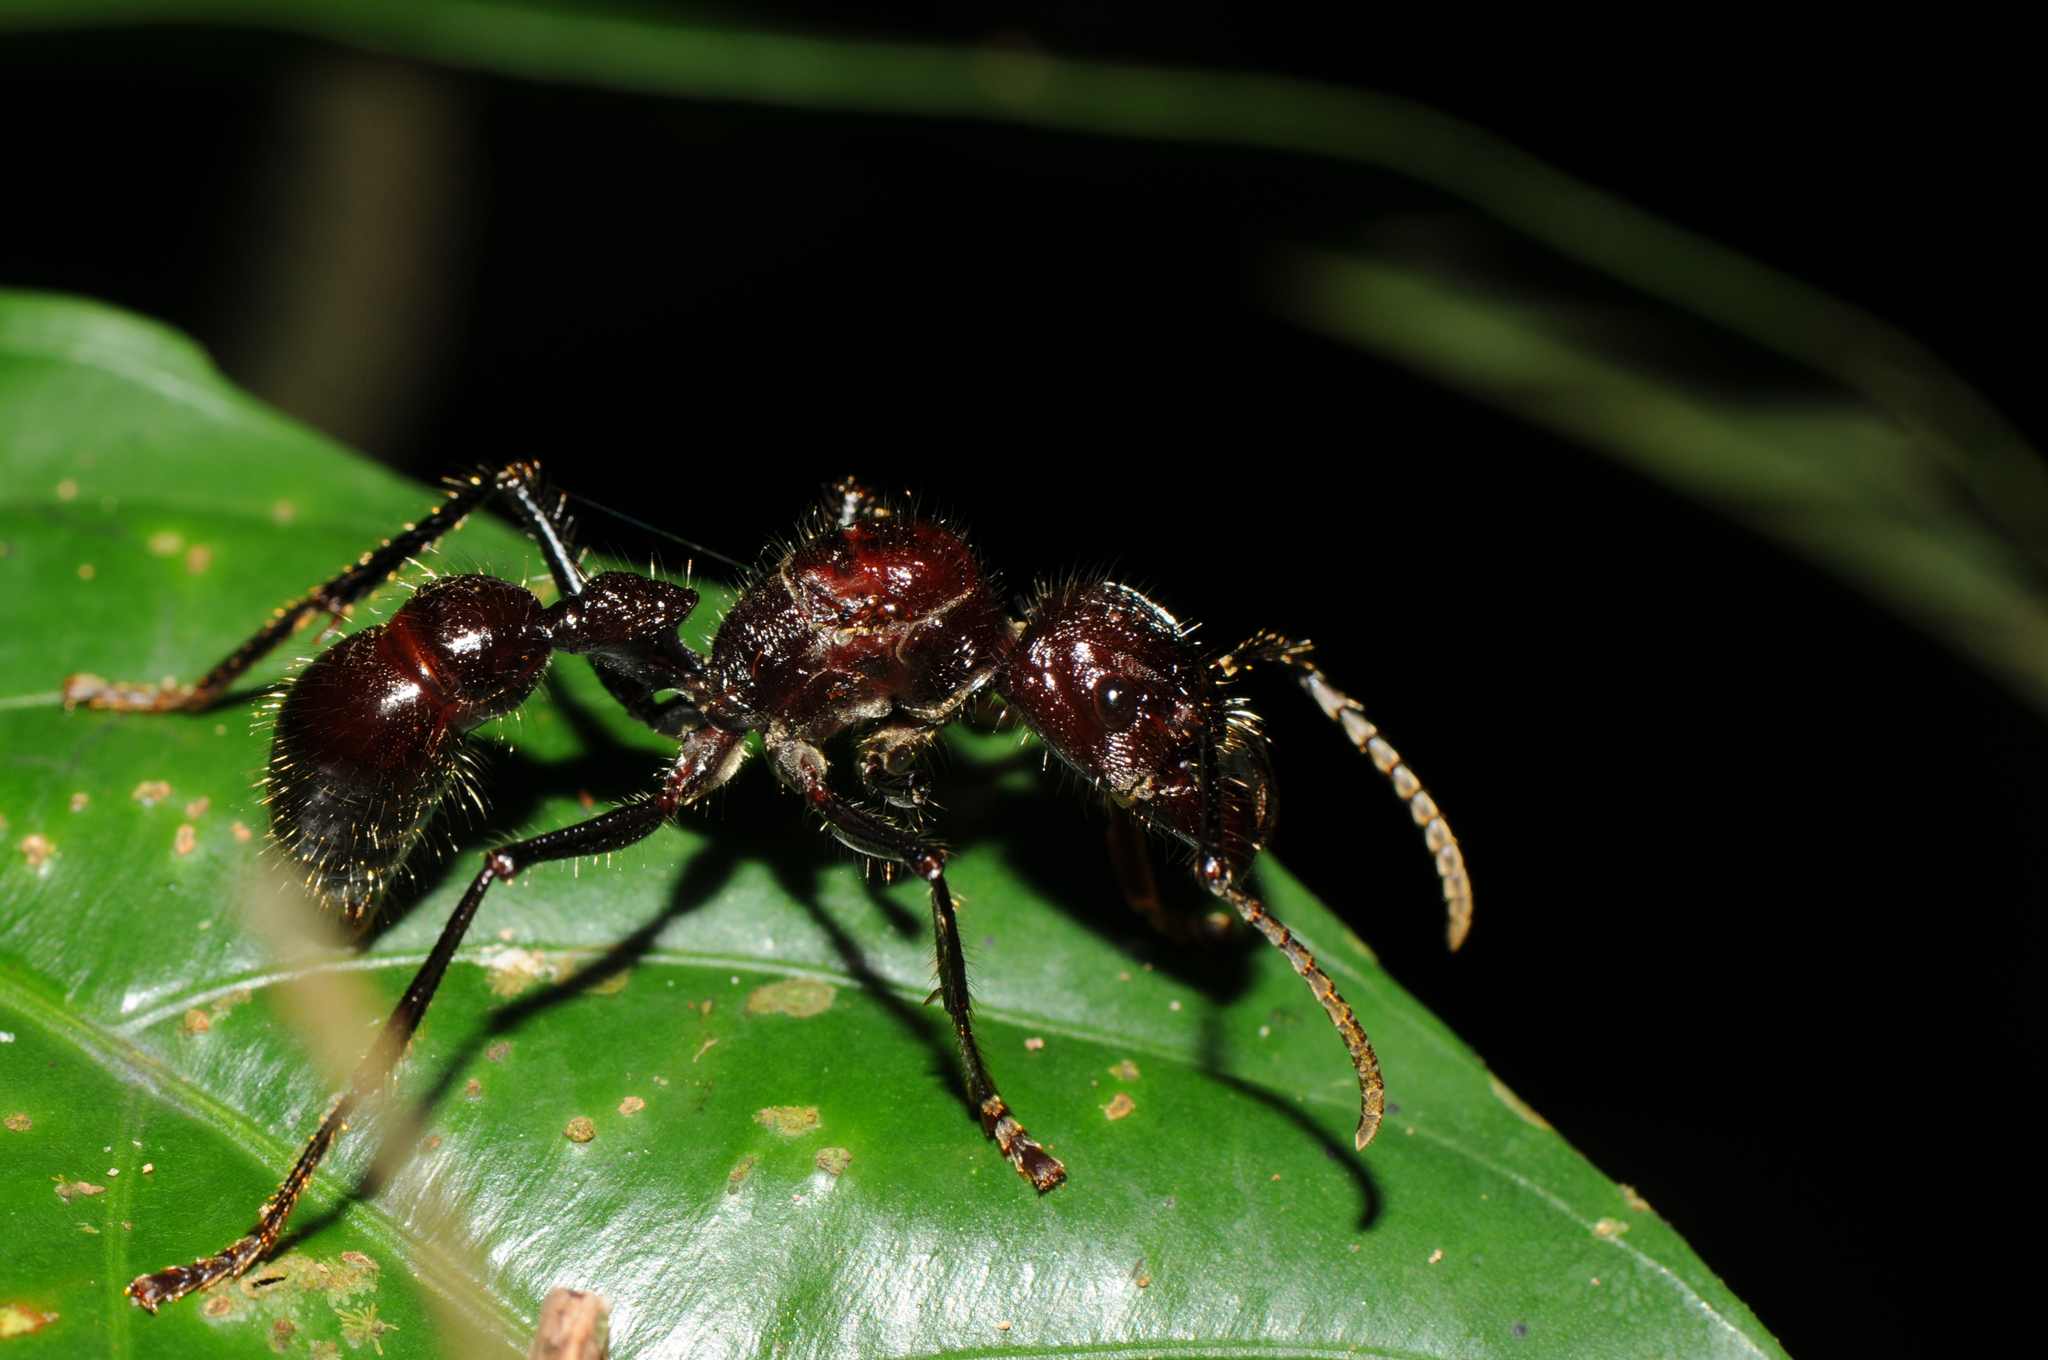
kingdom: Animalia
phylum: Arthropoda
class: Insecta
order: Hymenoptera
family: Formicidae
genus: Paraponera
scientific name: Paraponera clavata
